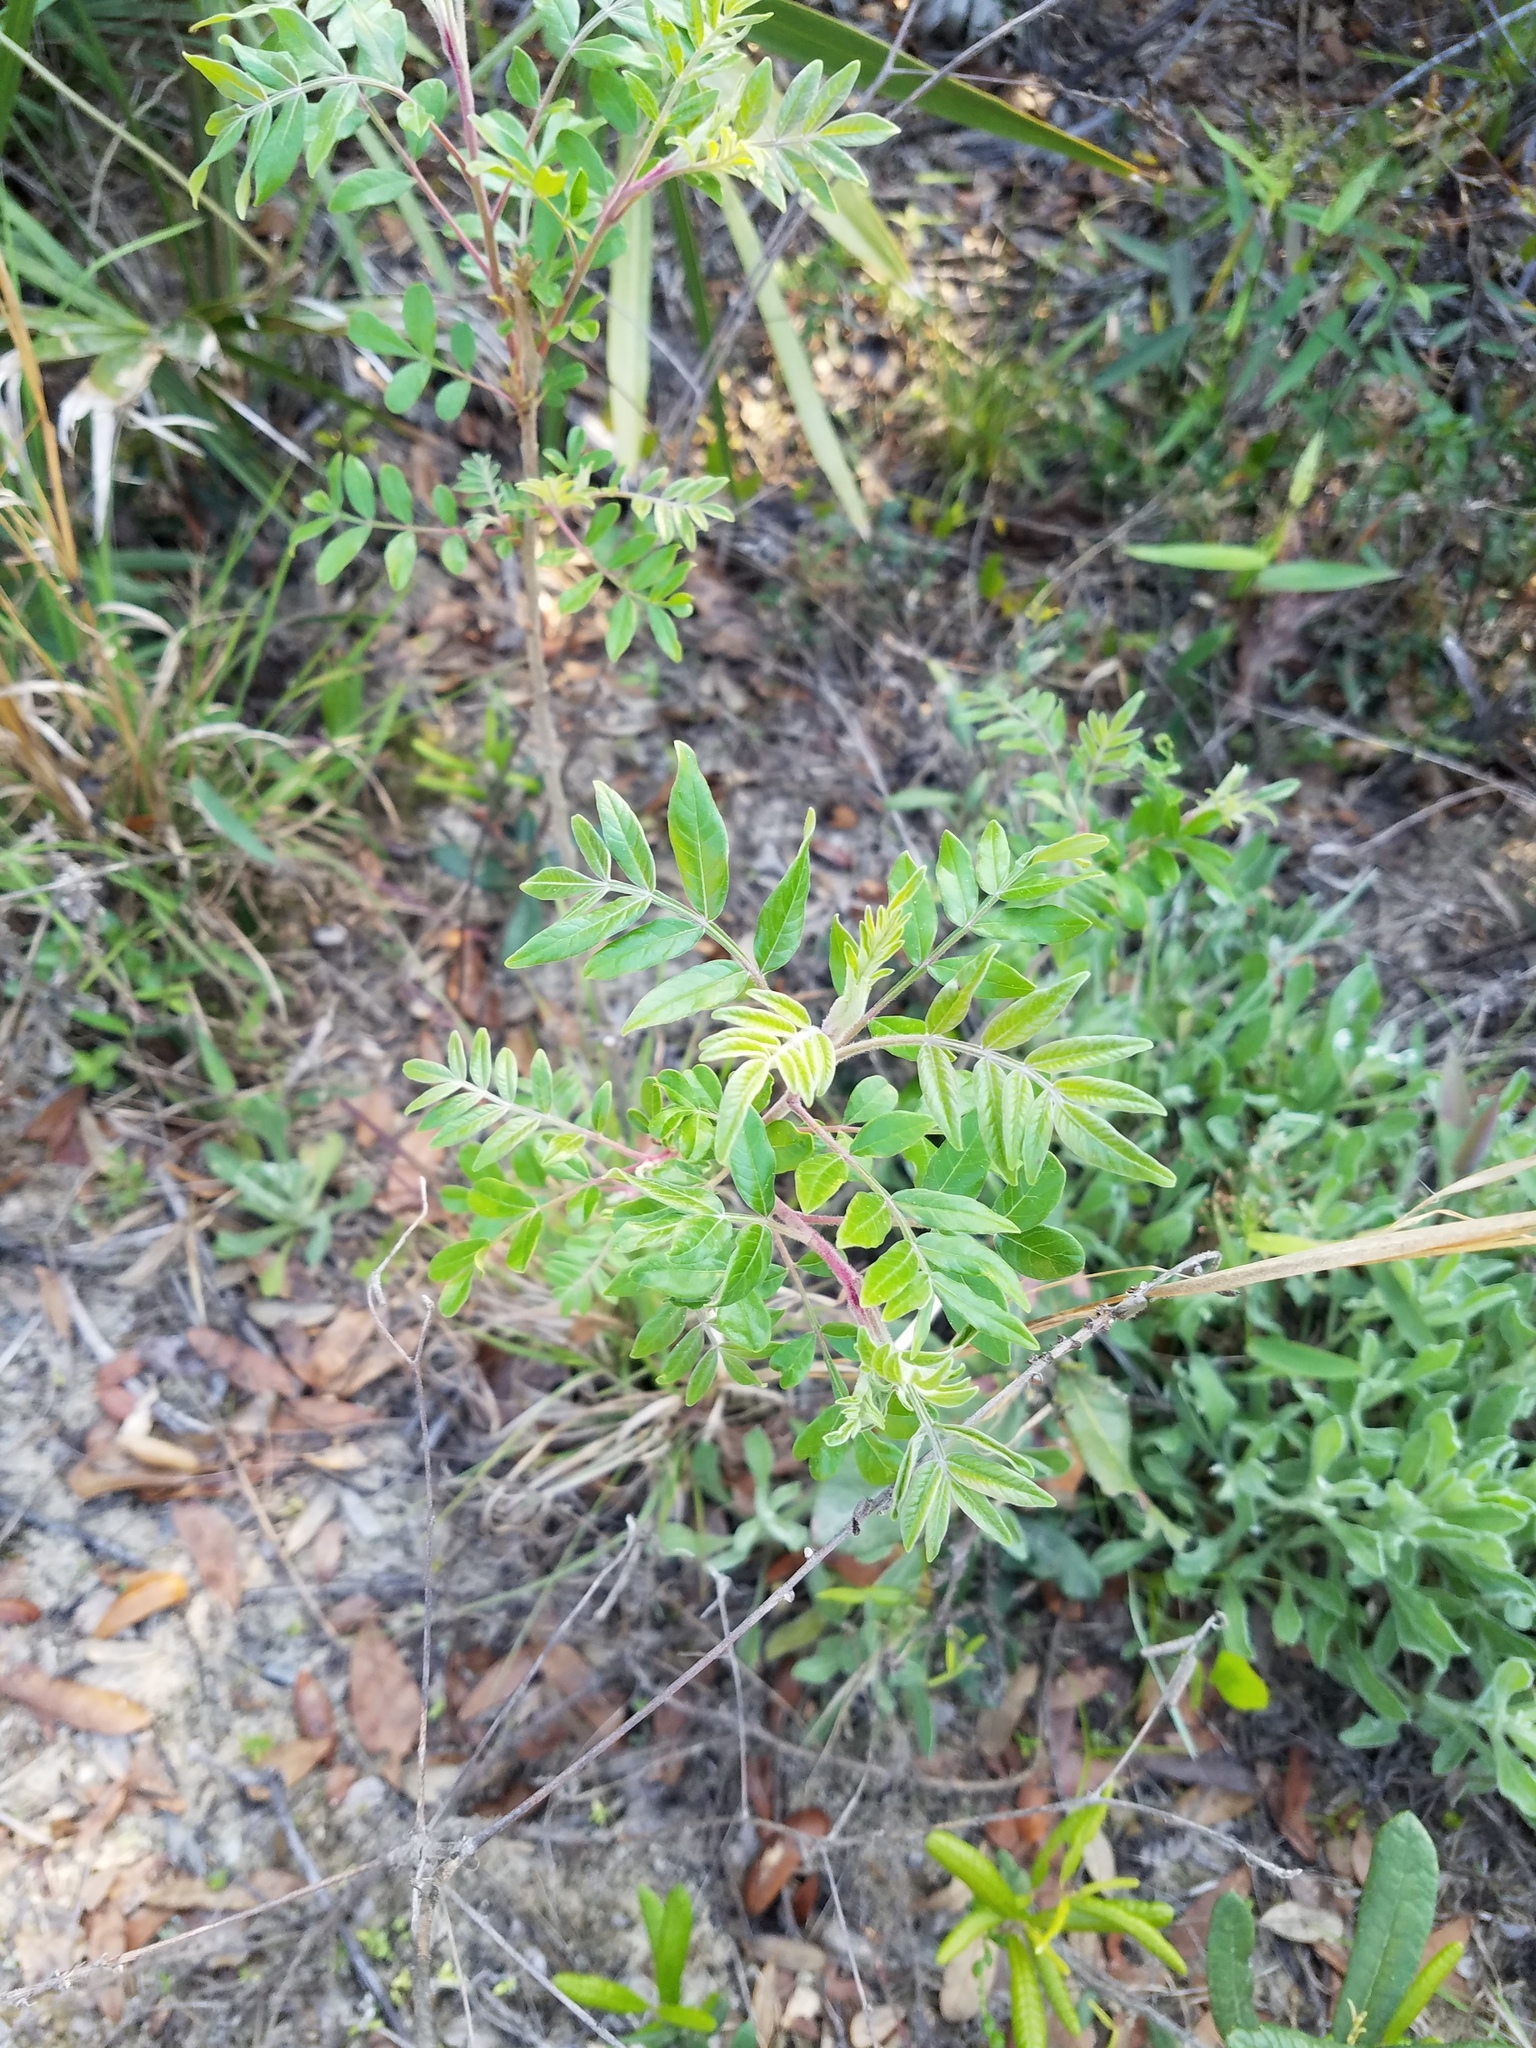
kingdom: Plantae
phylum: Tracheophyta
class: Magnoliopsida
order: Sapindales
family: Anacardiaceae
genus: Rhus
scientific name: Rhus copallina
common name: Shining sumac
